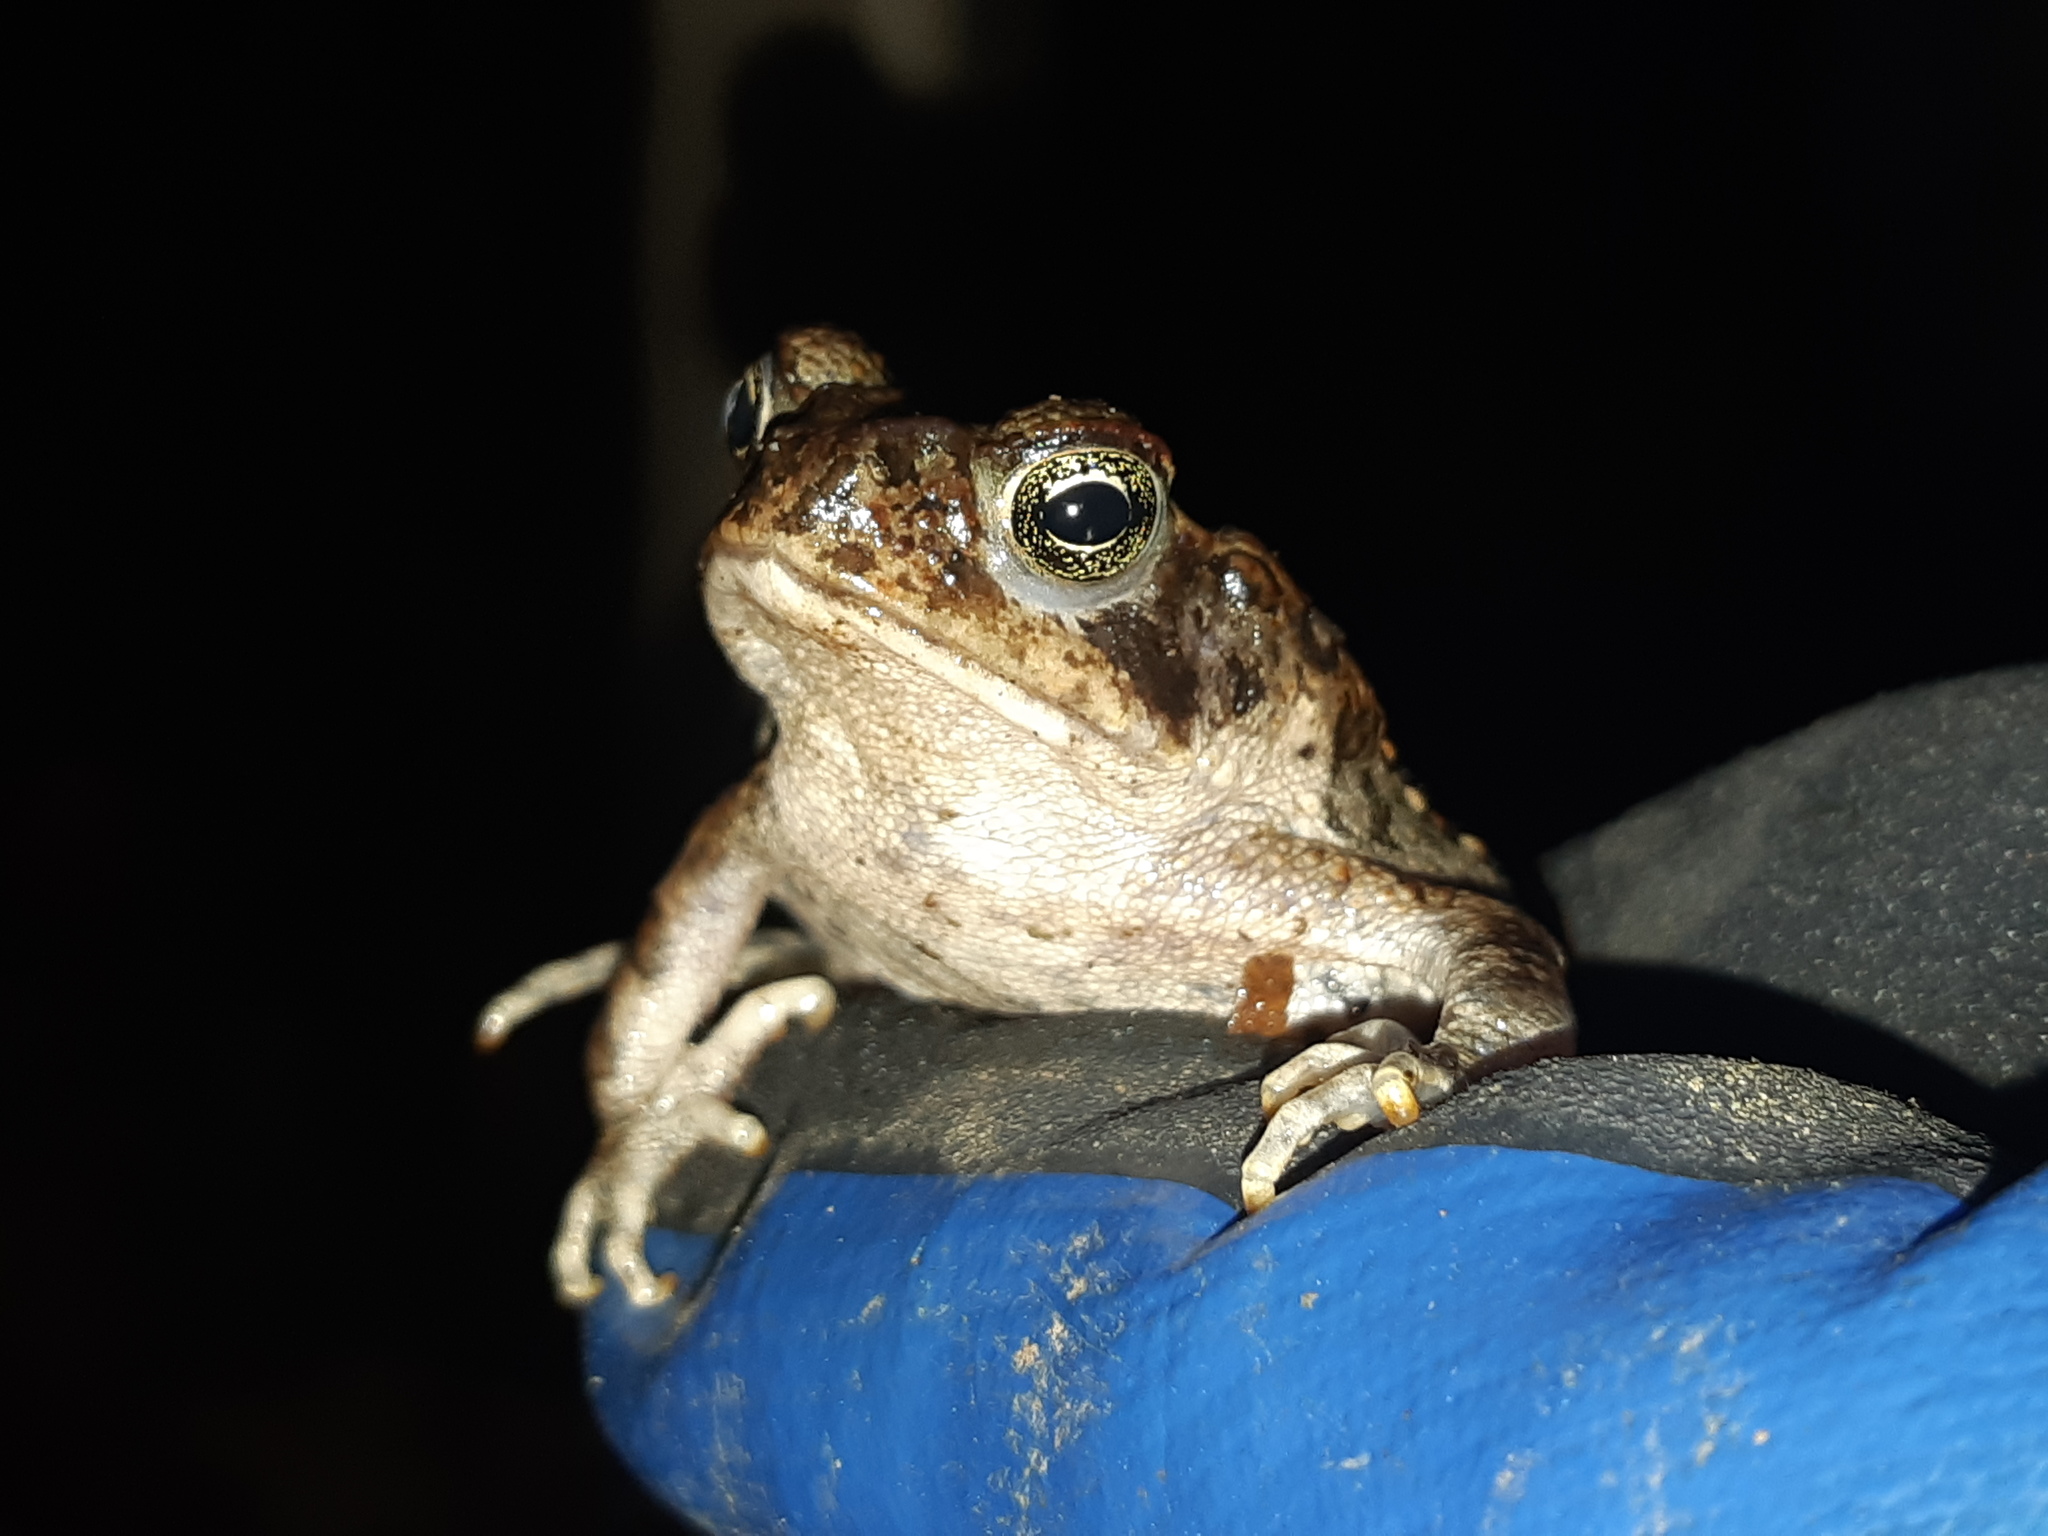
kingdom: Animalia
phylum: Chordata
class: Amphibia
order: Anura
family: Bufonidae
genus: Rhinella
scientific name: Rhinella
